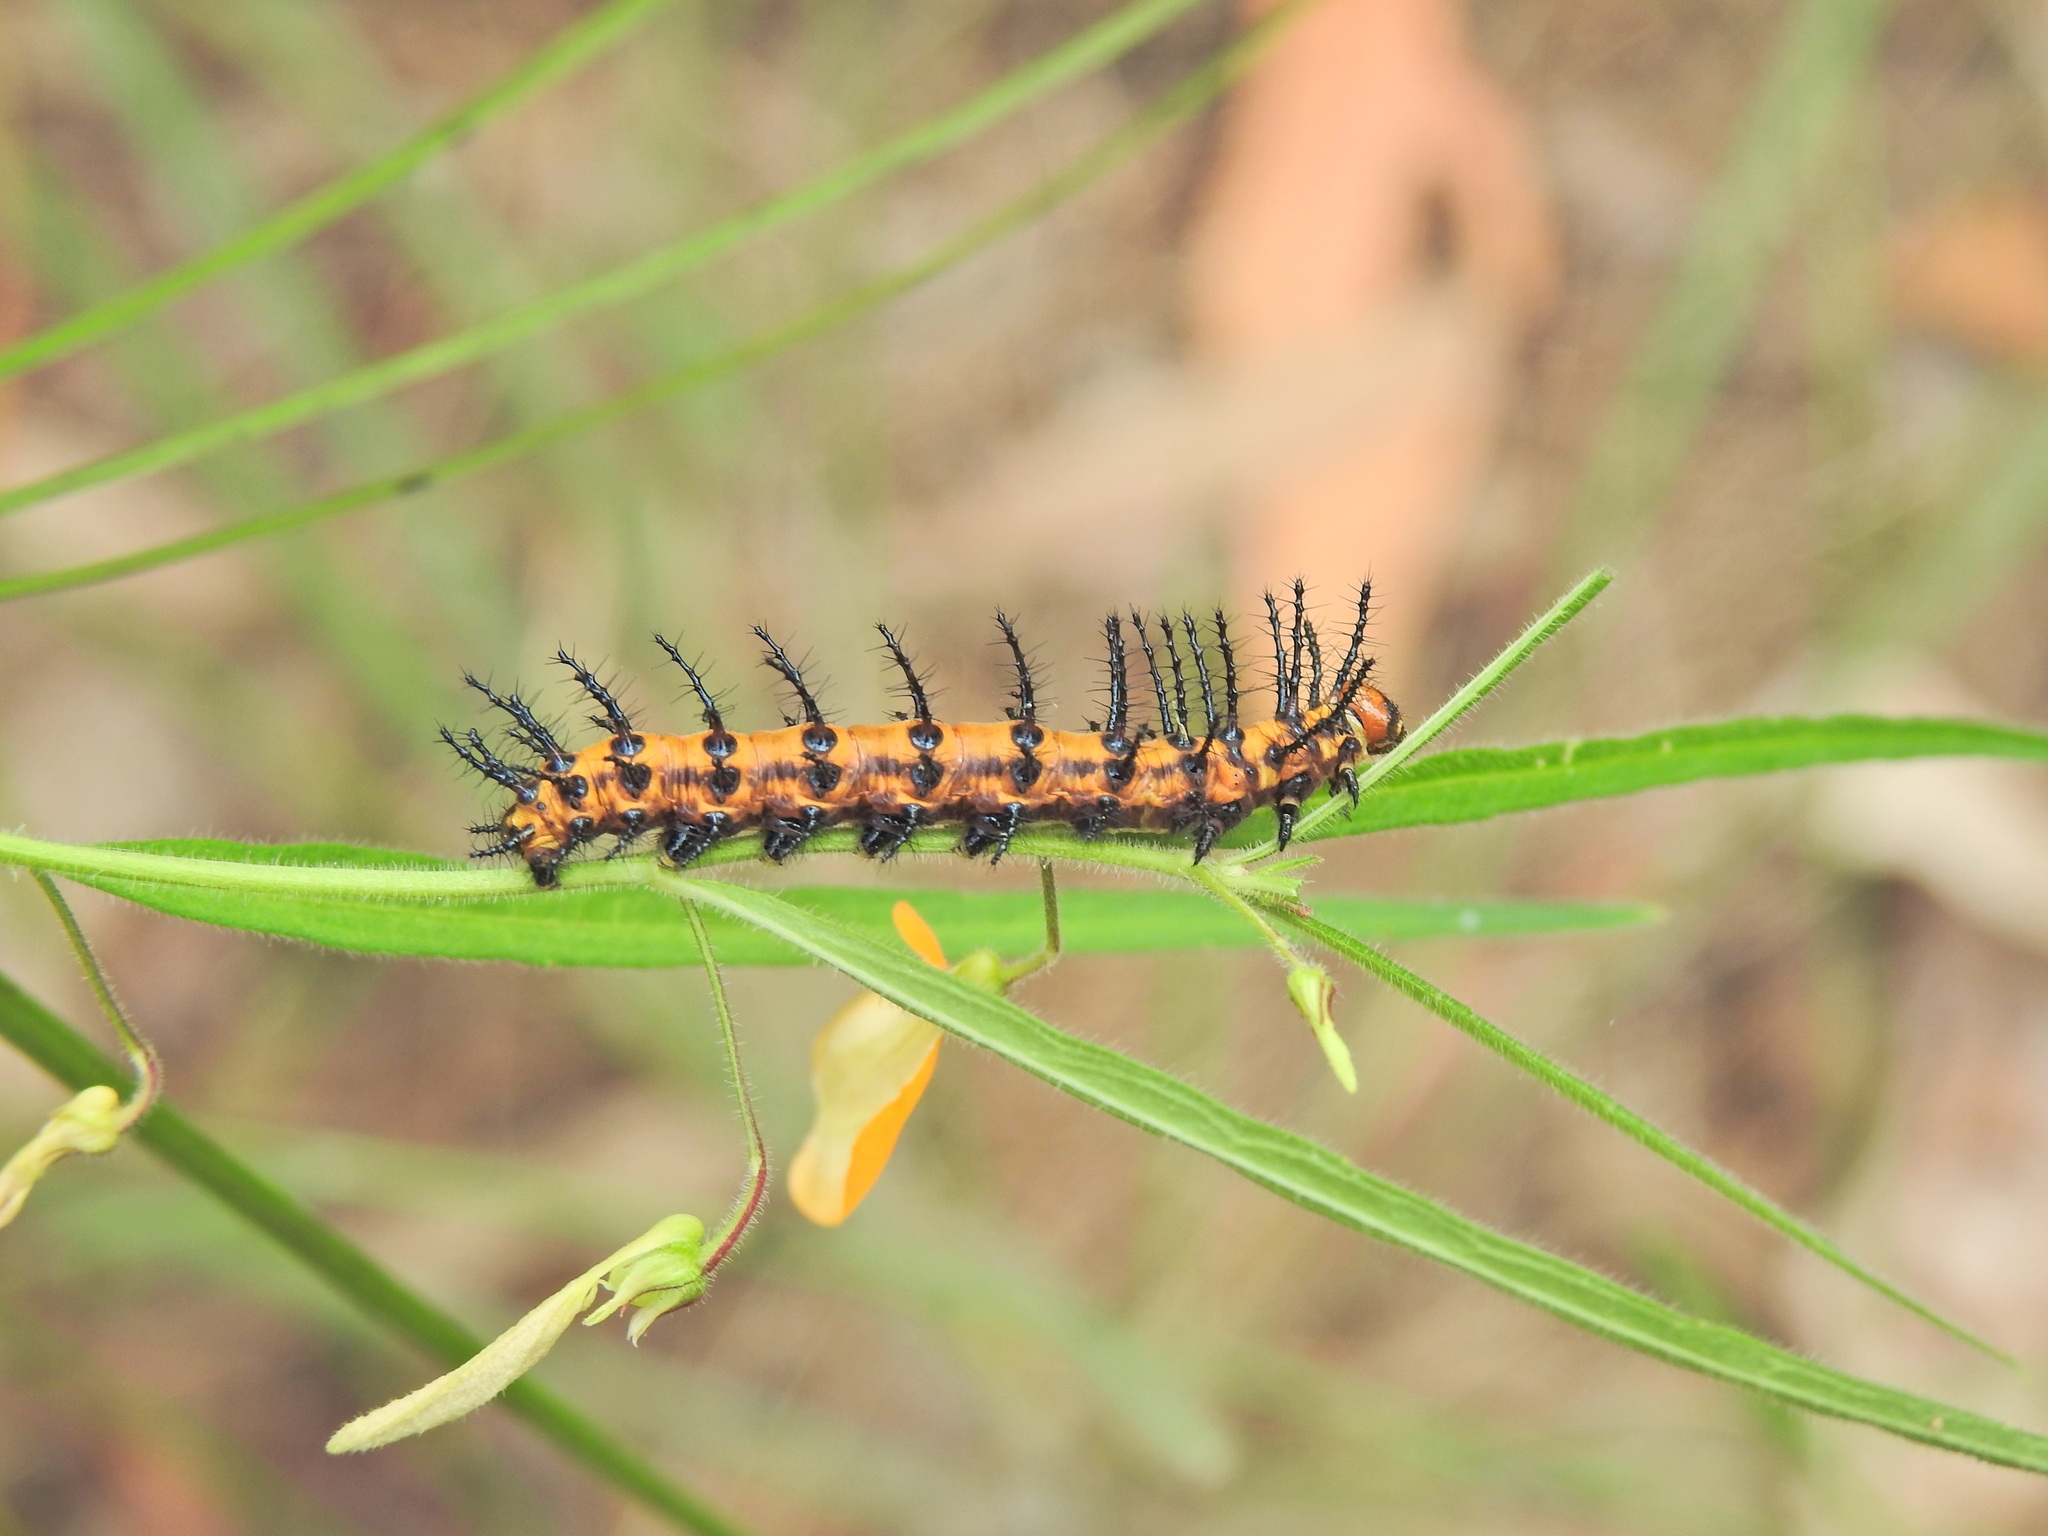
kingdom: Animalia
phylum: Arthropoda
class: Insecta
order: Lepidoptera
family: Nymphalidae
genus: Acraea
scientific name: Acraea andromacha
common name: Glasswing
